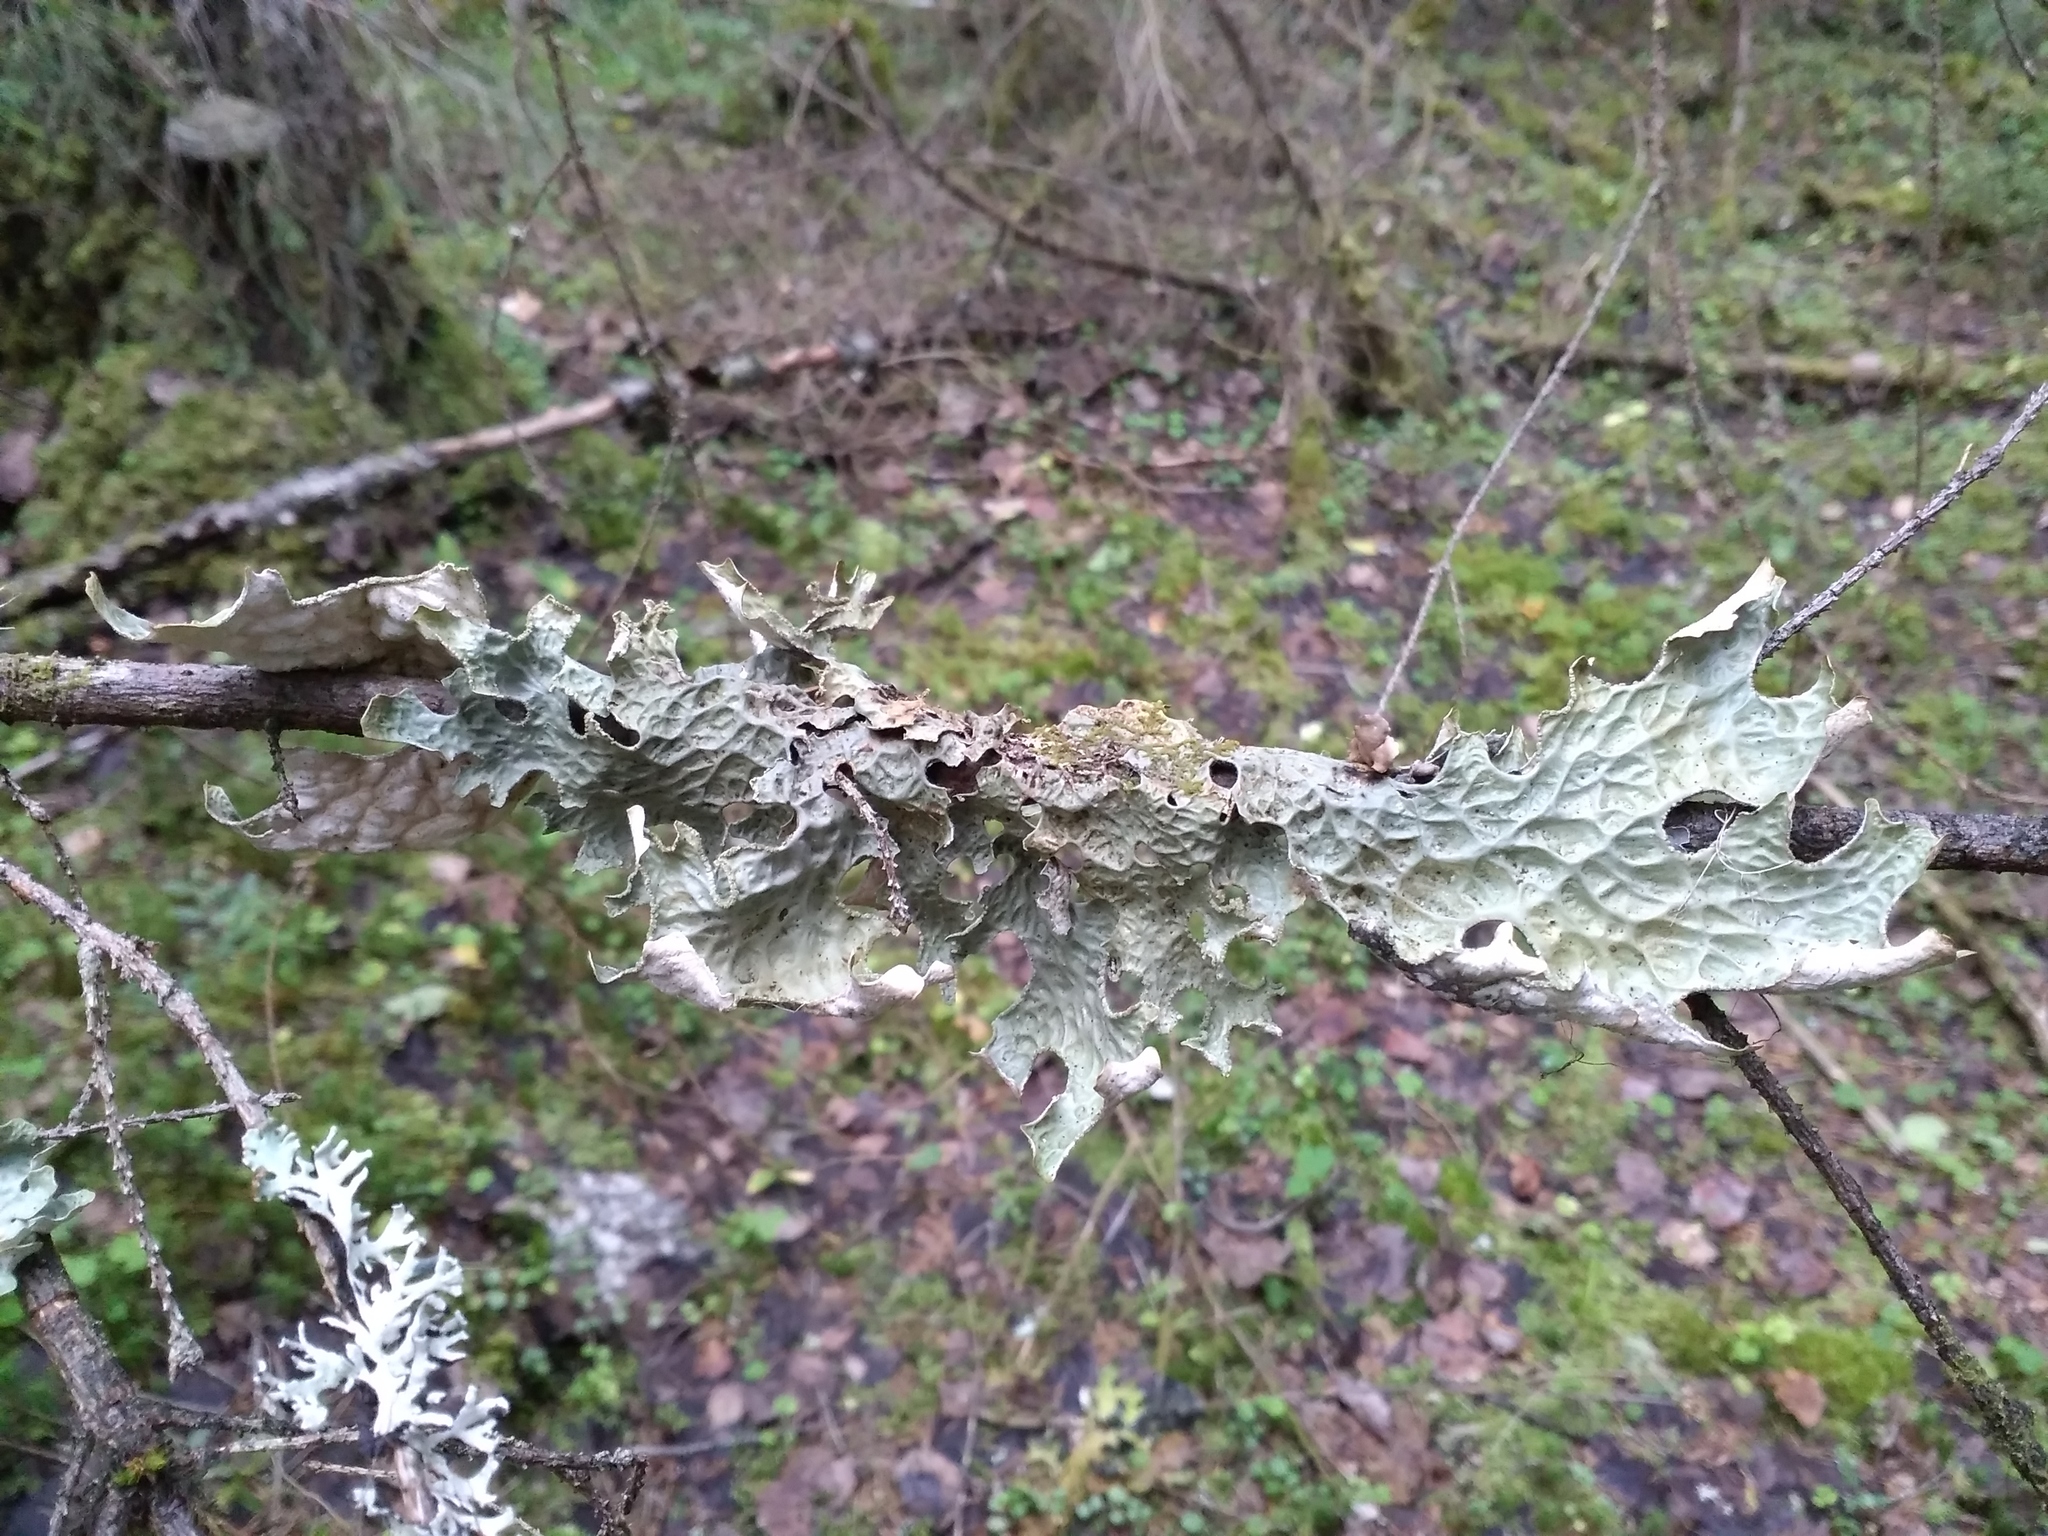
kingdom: Fungi
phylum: Ascomycota
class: Lecanoromycetes
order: Peltigerales
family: Lobariaceae
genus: Lobaria
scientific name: Lobaria pulmonaria
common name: Lungwort
